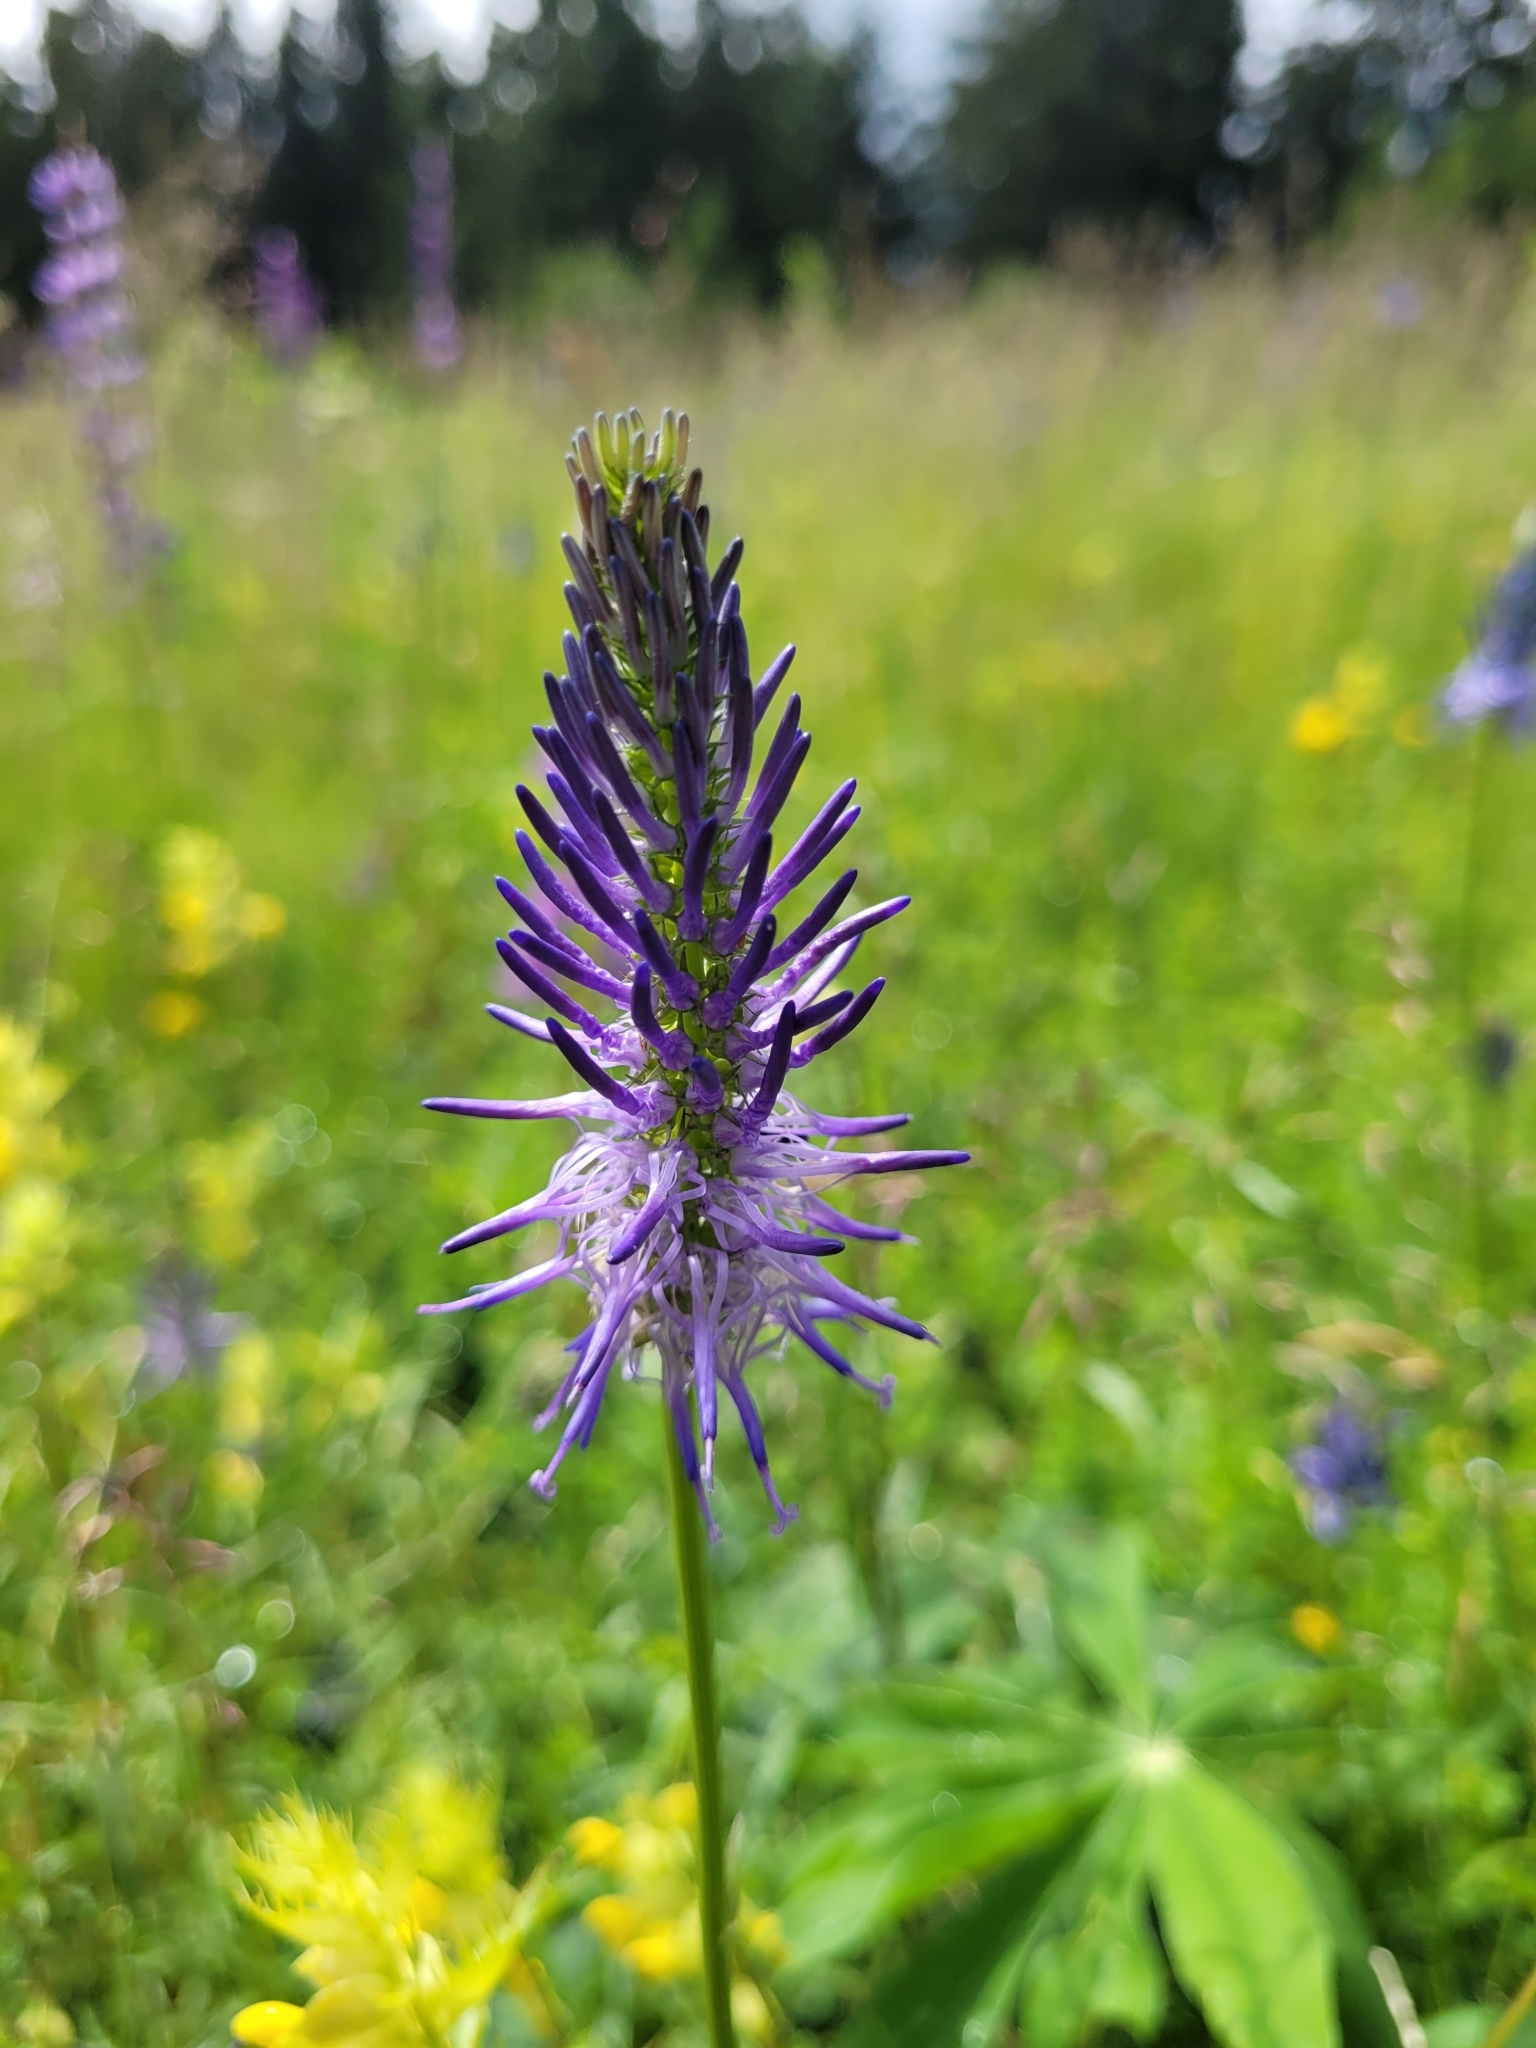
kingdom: Plantae
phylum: Tracheophyta
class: Magnoliopsida
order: Asterales
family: Campanulaceae
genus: Phyteuma
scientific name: Phyteuma persicifolium
